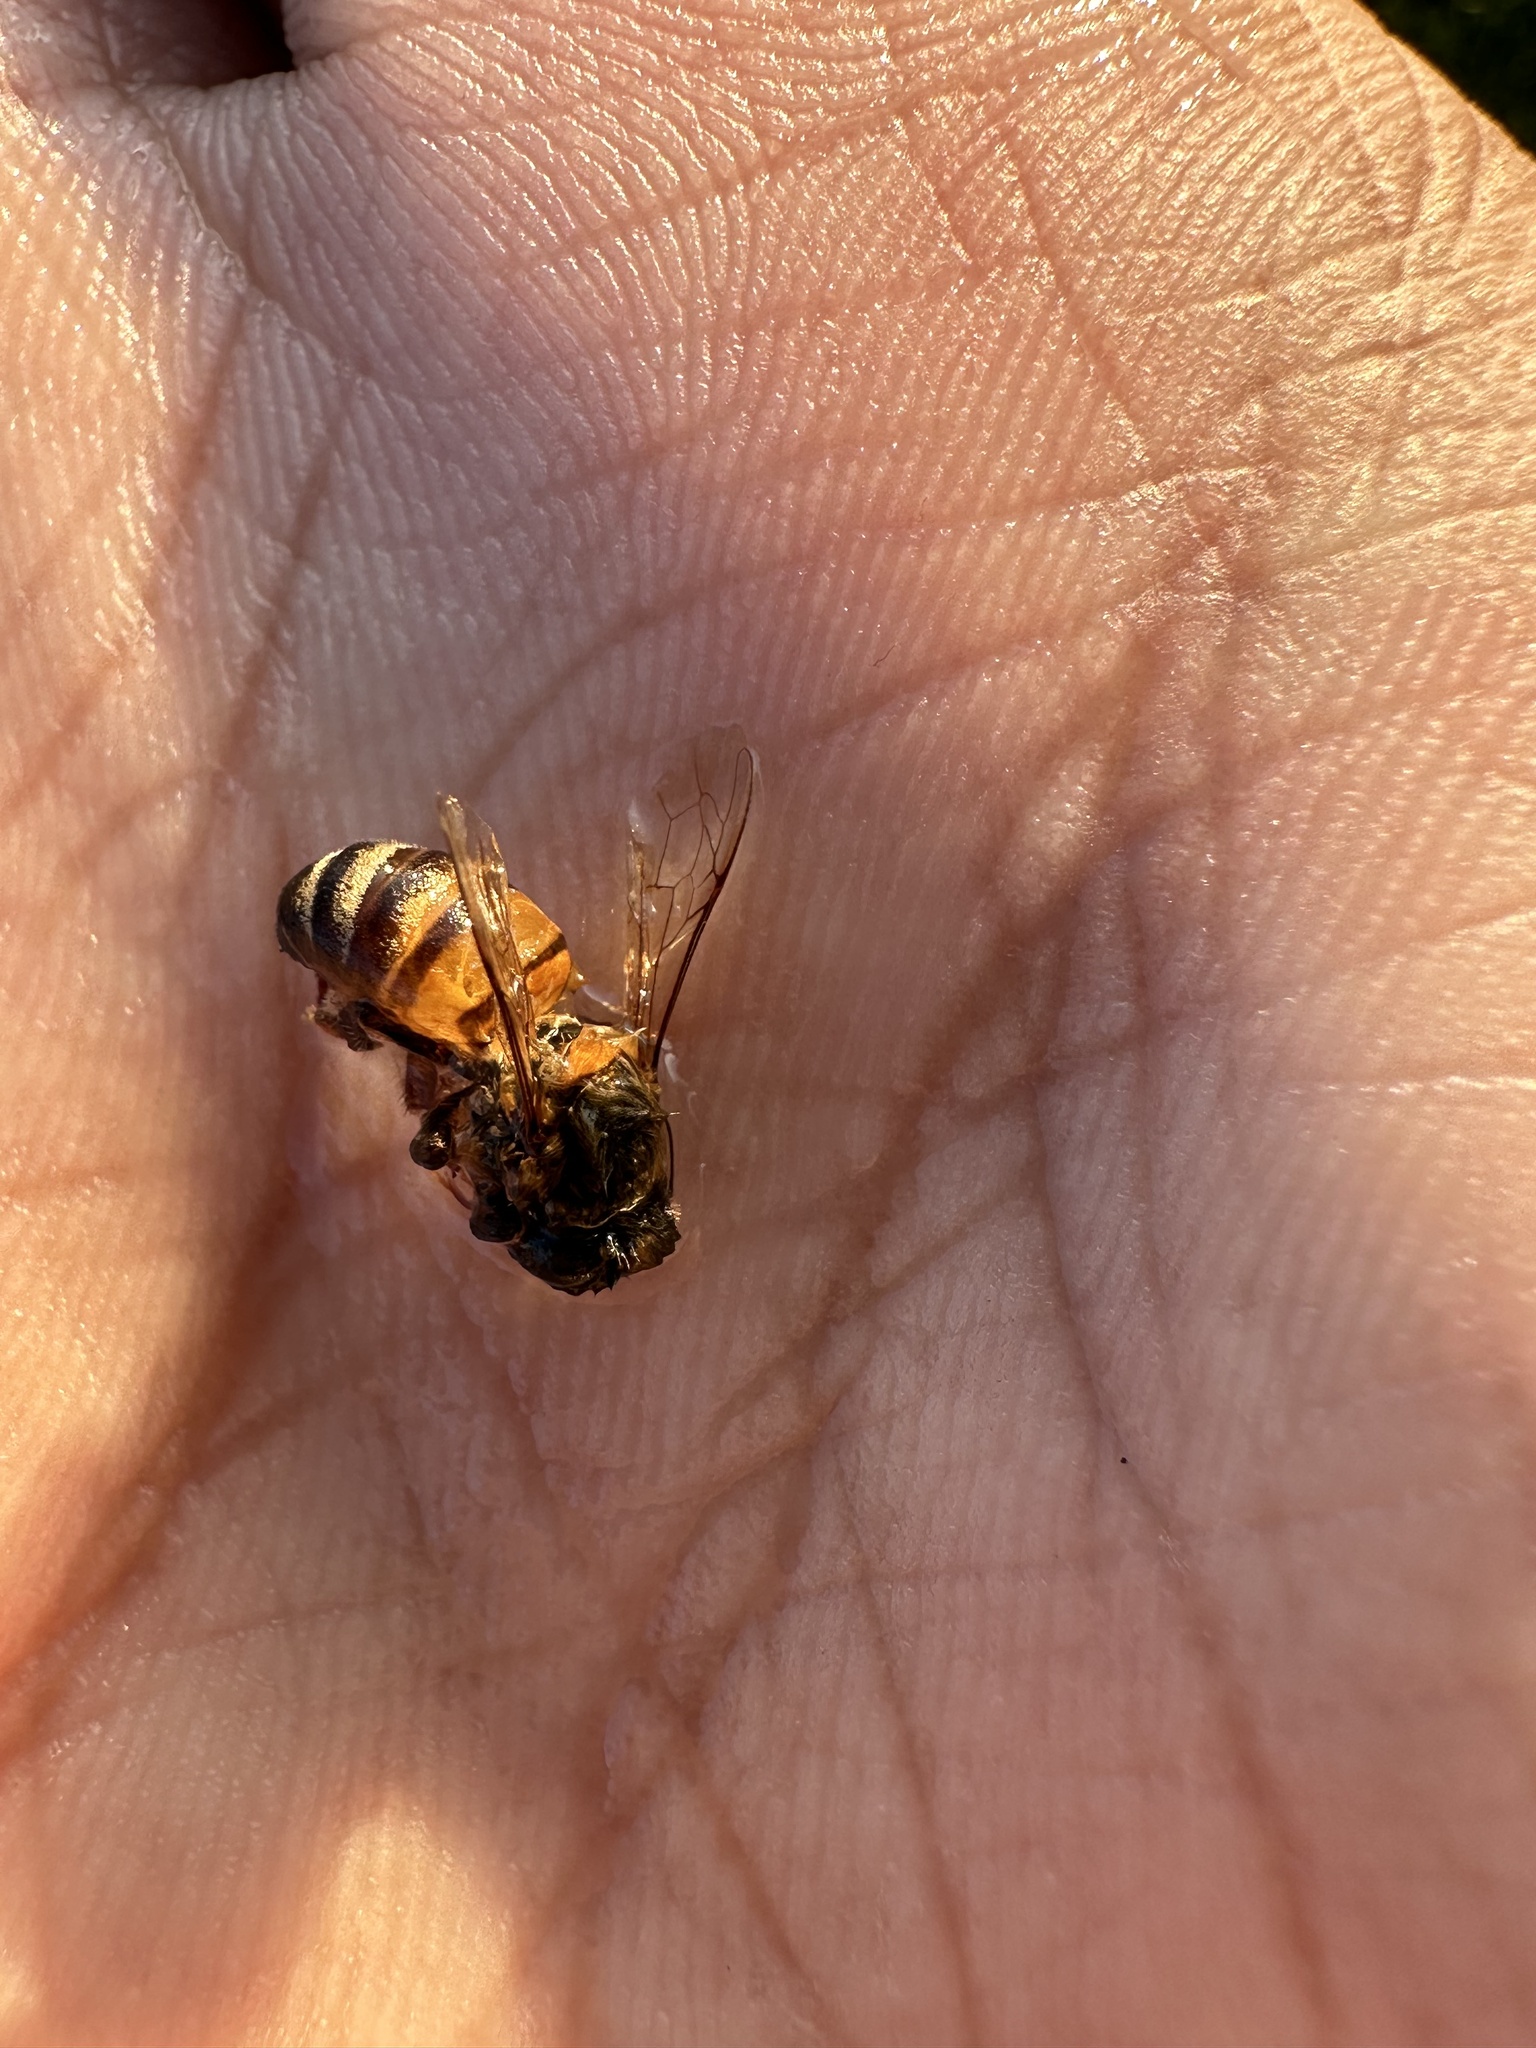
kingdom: Animalia
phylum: Arthropoda
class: Insecta
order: Hymenoptera
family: Apidae
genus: Apis
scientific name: Apis mellifera
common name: Honey bee
